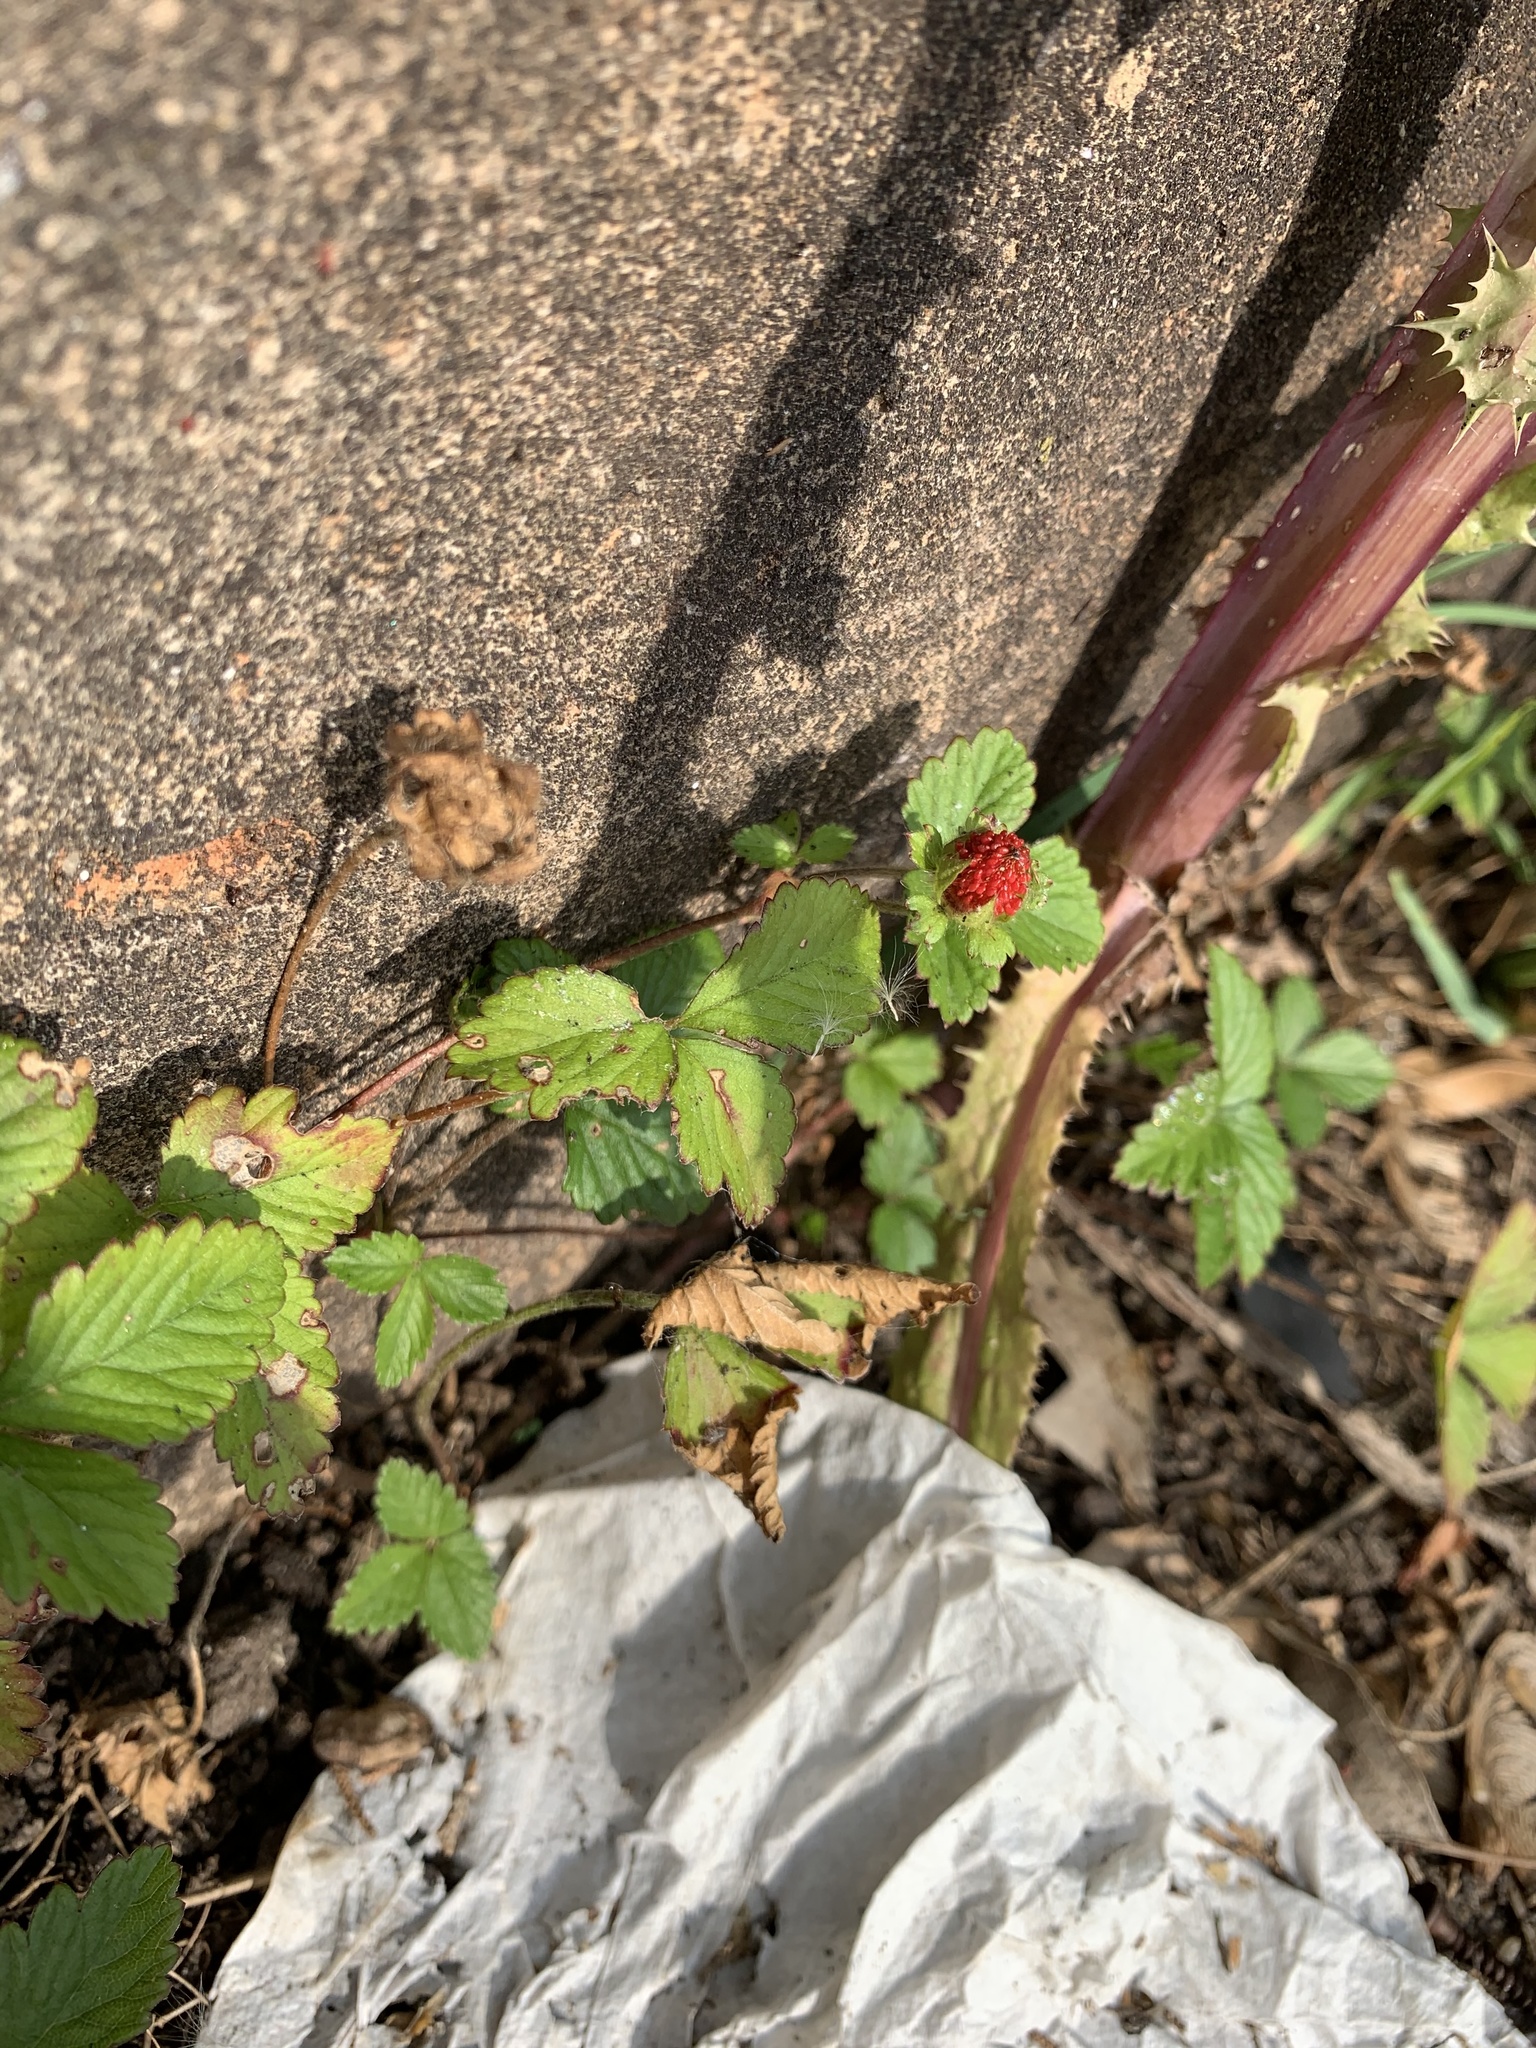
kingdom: Plantae
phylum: Tracheophyta
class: Magnoliopsida
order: Rosales
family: Rosaceae
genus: Potentilla
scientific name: Potentilla indica
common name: Yellow-flowered strawberry
